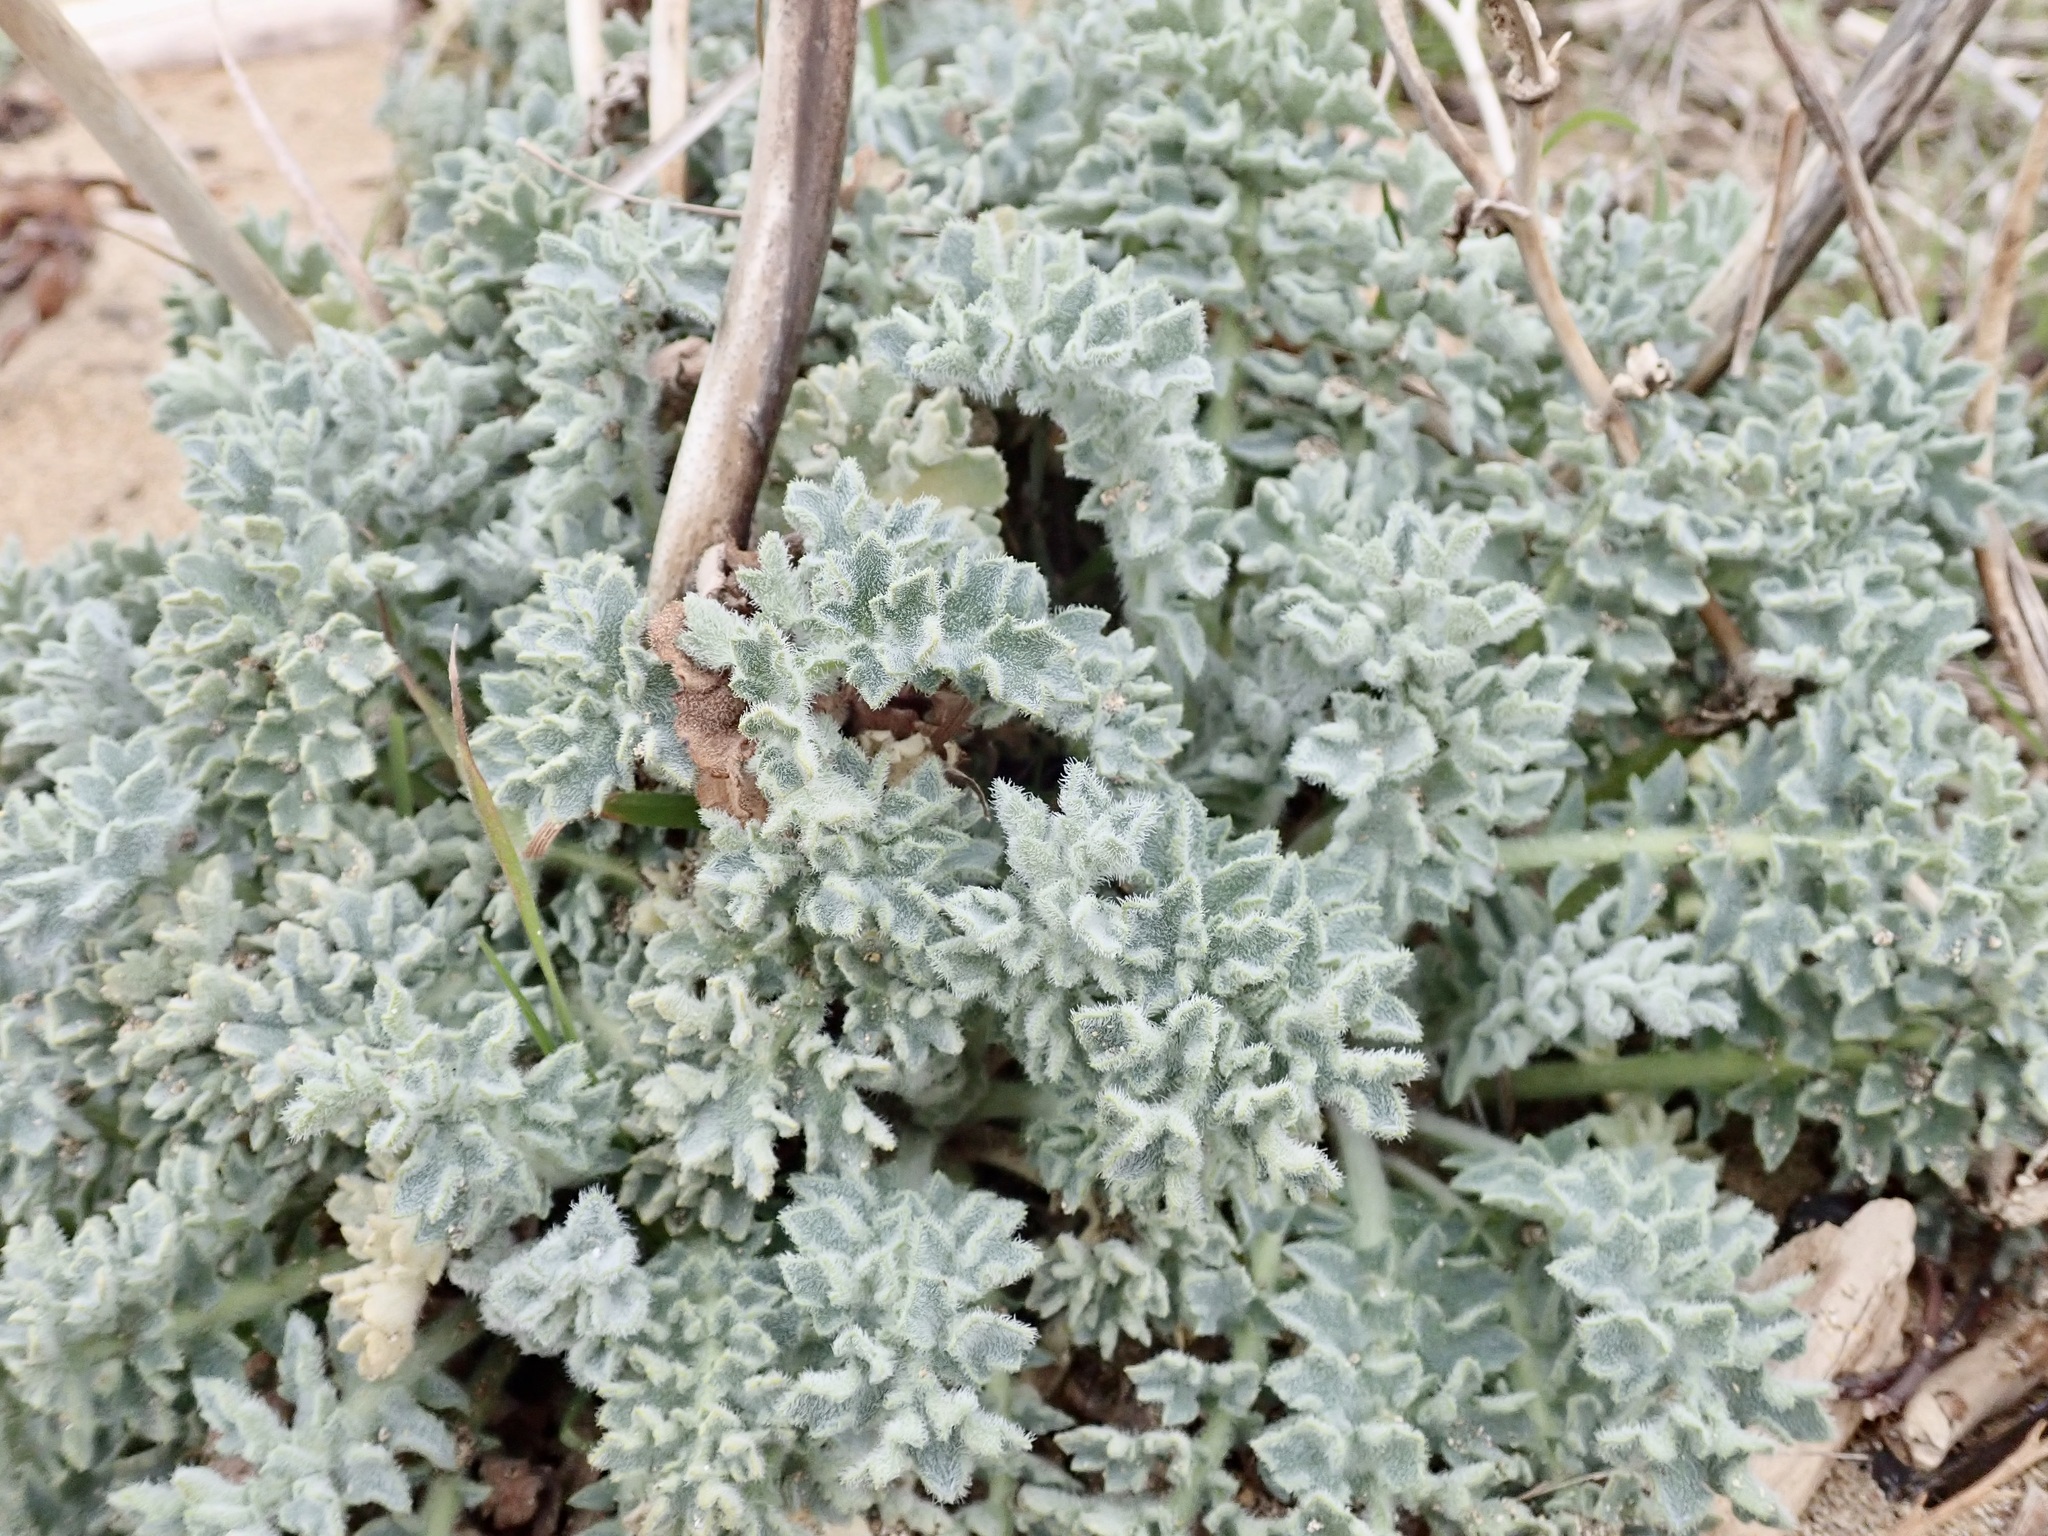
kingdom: Plantae
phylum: Tracheophyta
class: Magnoliopsida
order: Ranunculales
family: Papaveraceae
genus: Glaucium
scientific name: Glaucium flavum
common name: Yellow horned-poppy
